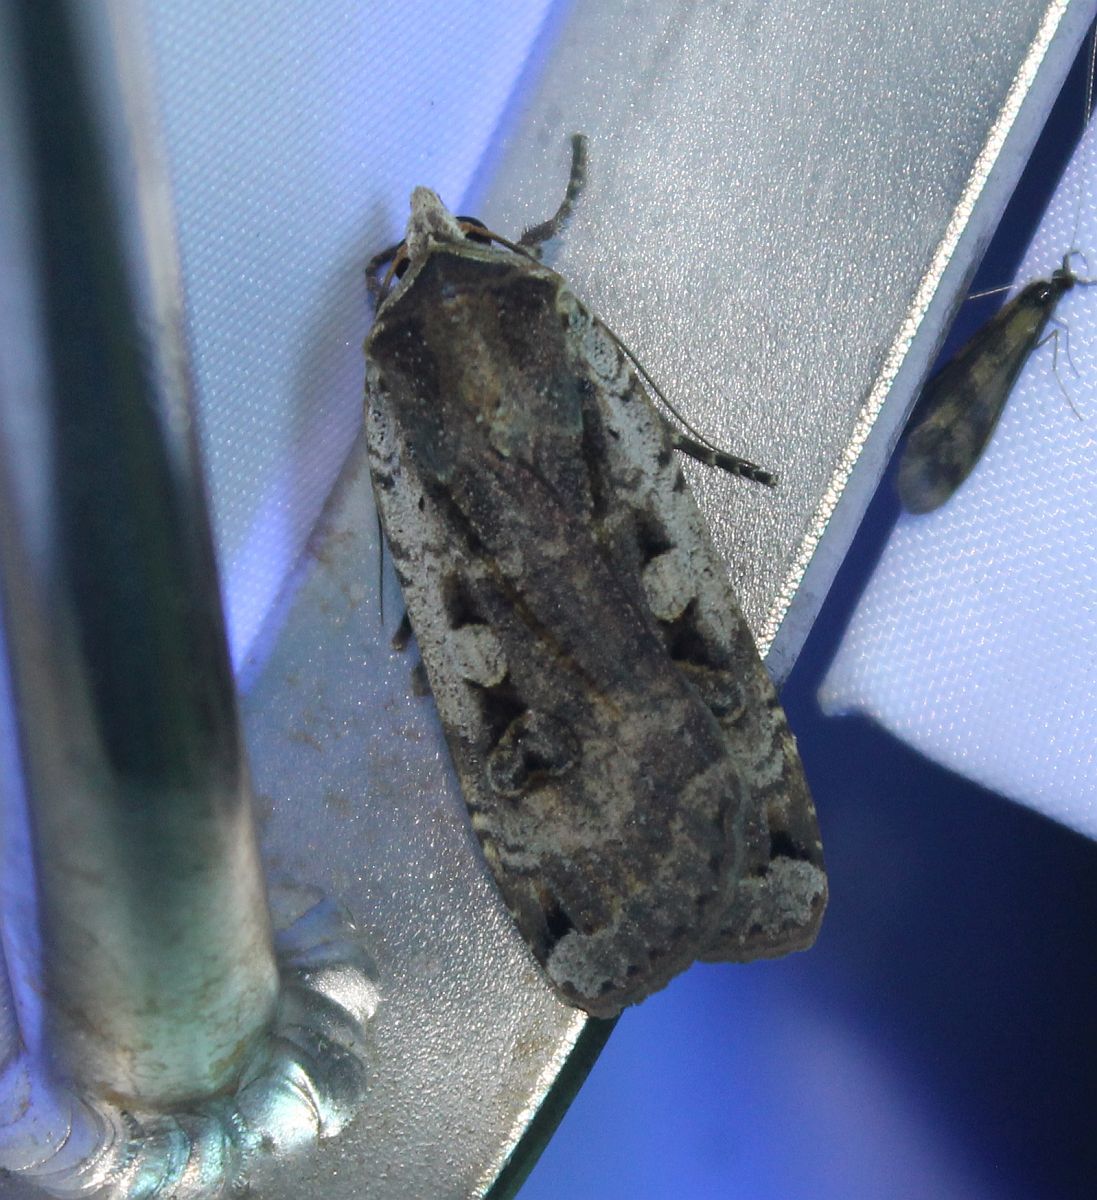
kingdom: Animalia
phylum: Arthropoda
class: Insecta
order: Lepidoptera
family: Noctuidae
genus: Noctua
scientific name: Noctua pronuba
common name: Large yellow underwing
